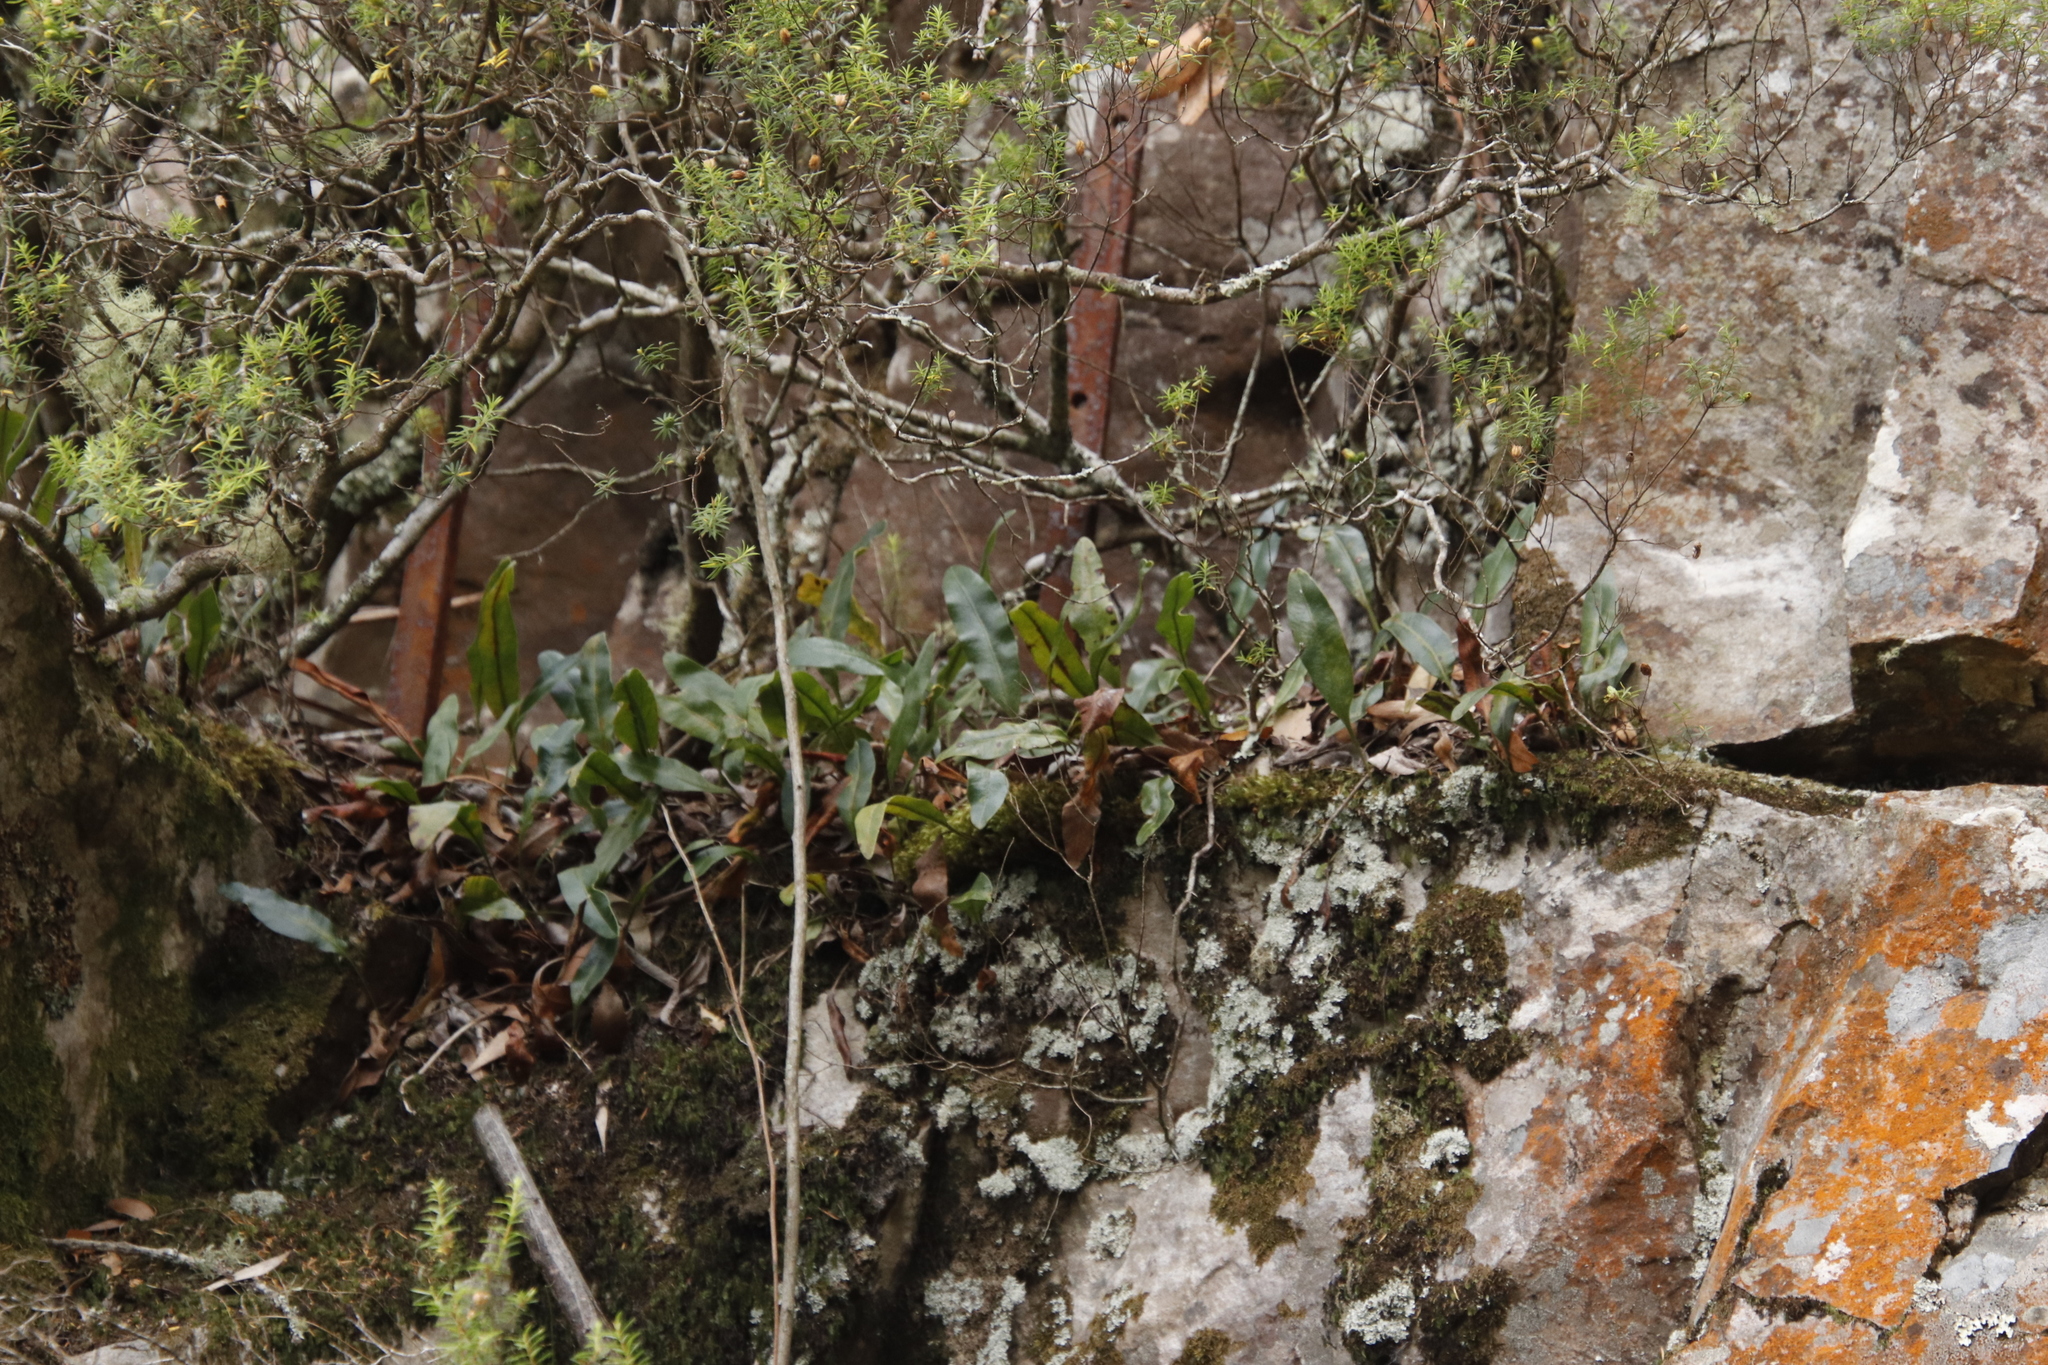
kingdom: Plantae
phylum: Tracheophyta
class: Polypodiopsida
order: Polypodiales
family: Polypodiaceae
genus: Pleopeltis
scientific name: Pleopeltis macrocarpa
